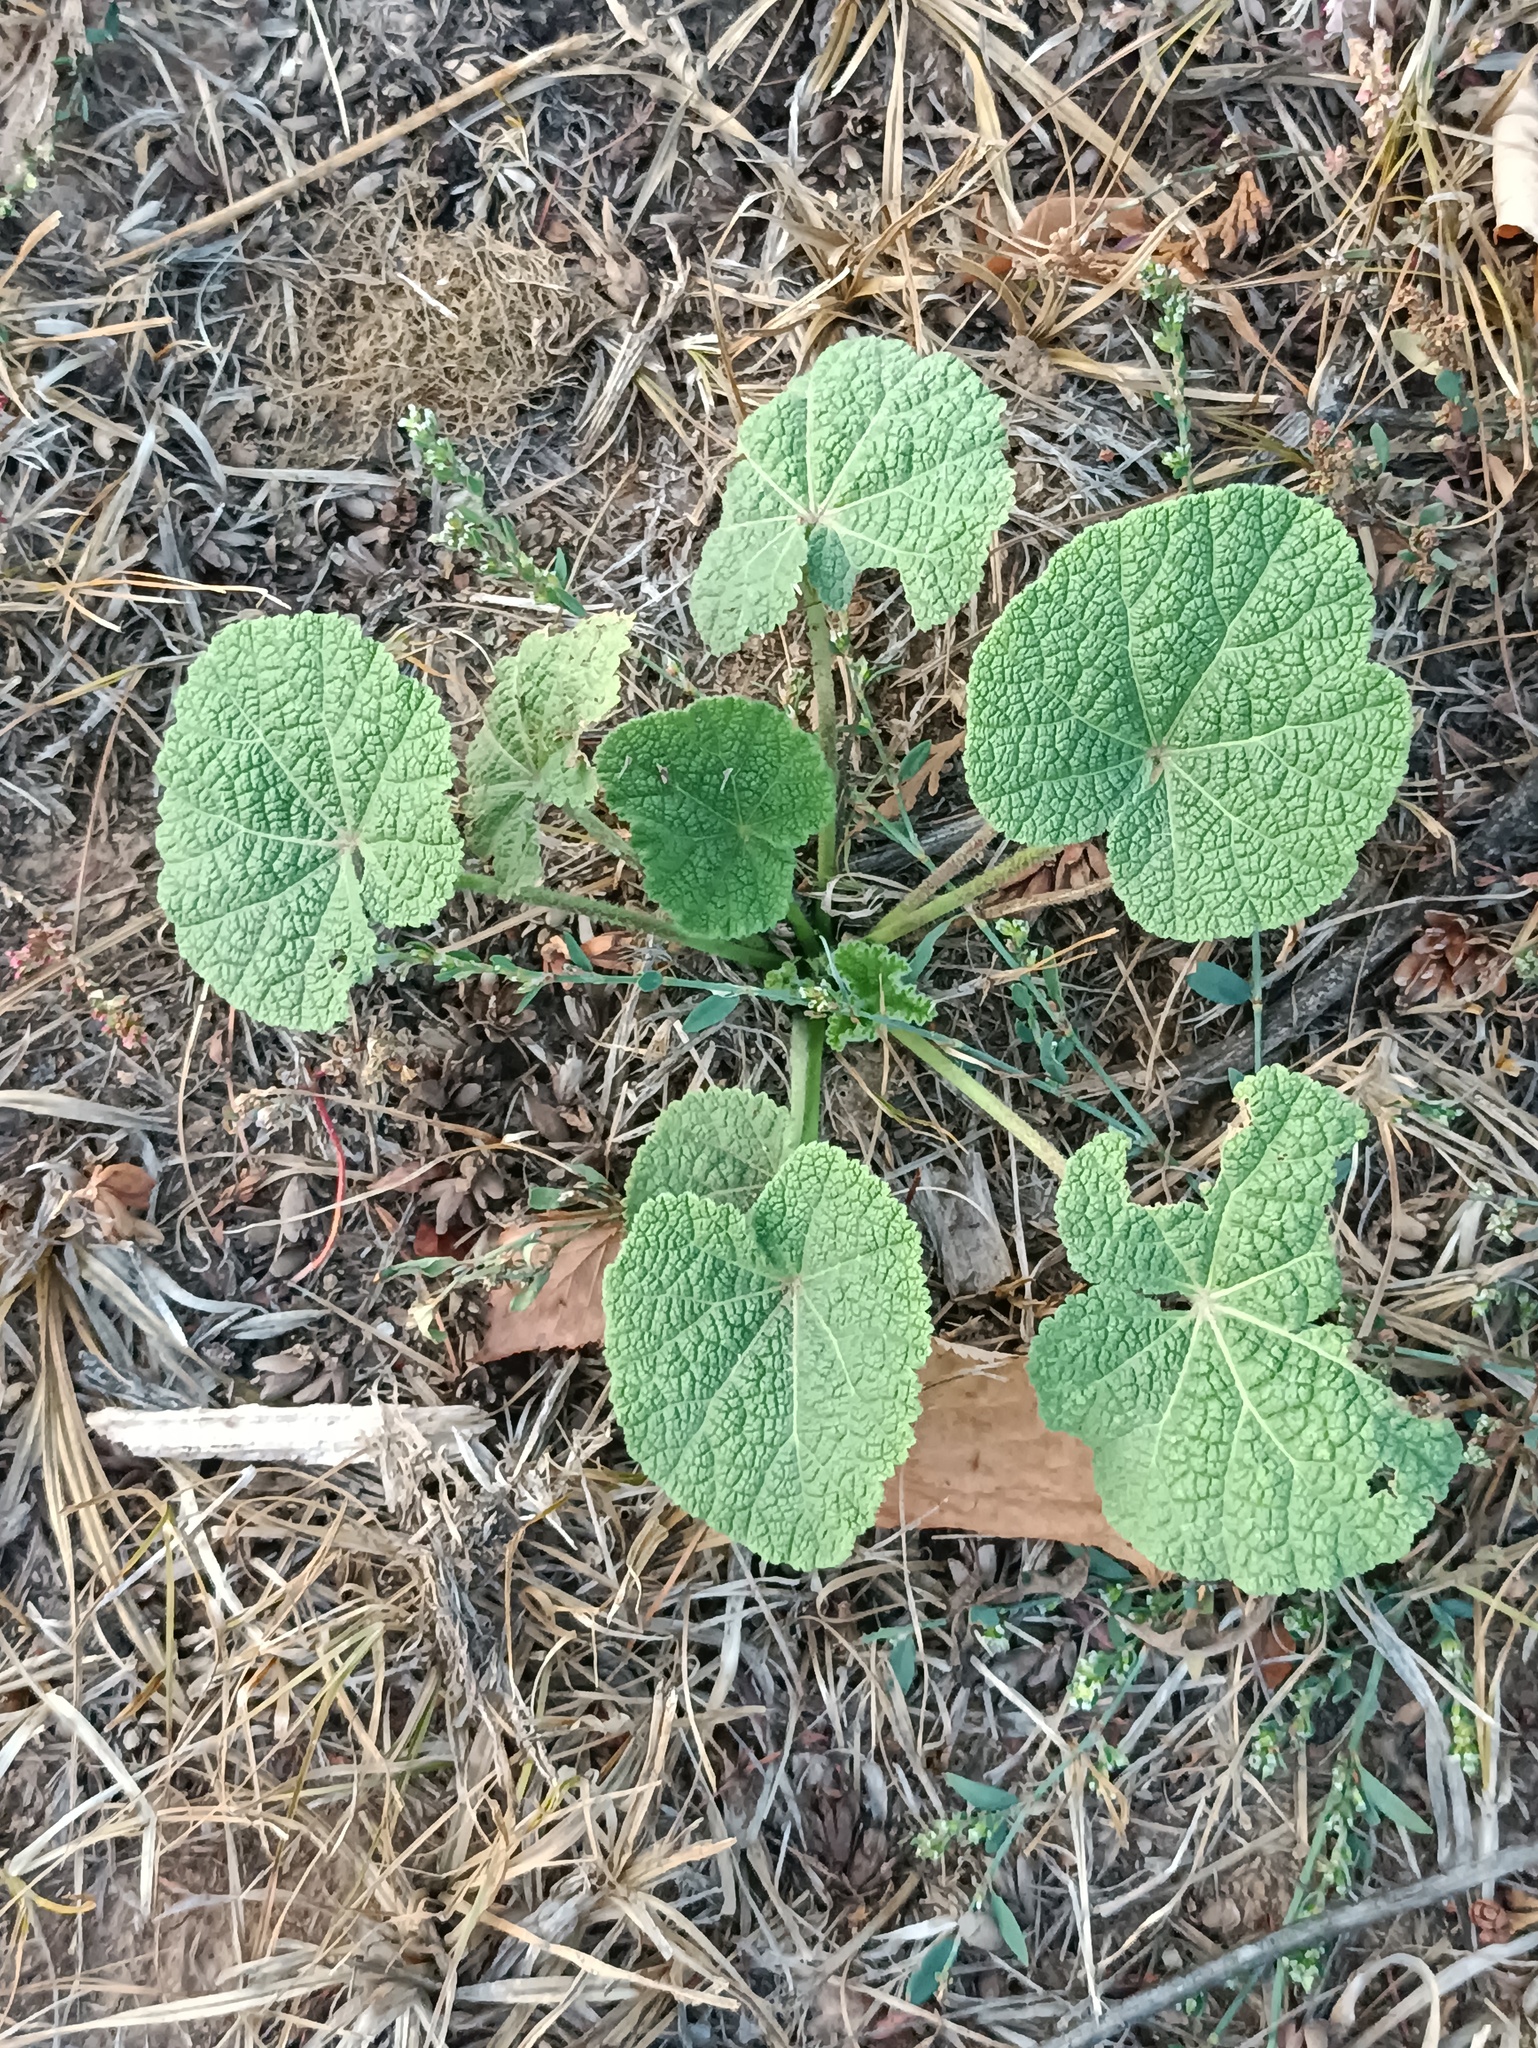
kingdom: Plantae
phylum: Tracheophyta
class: Magnoliopsida
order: Malvales
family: Malvaceae
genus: Alcea
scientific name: Alcea rosea
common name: Hollyhock
